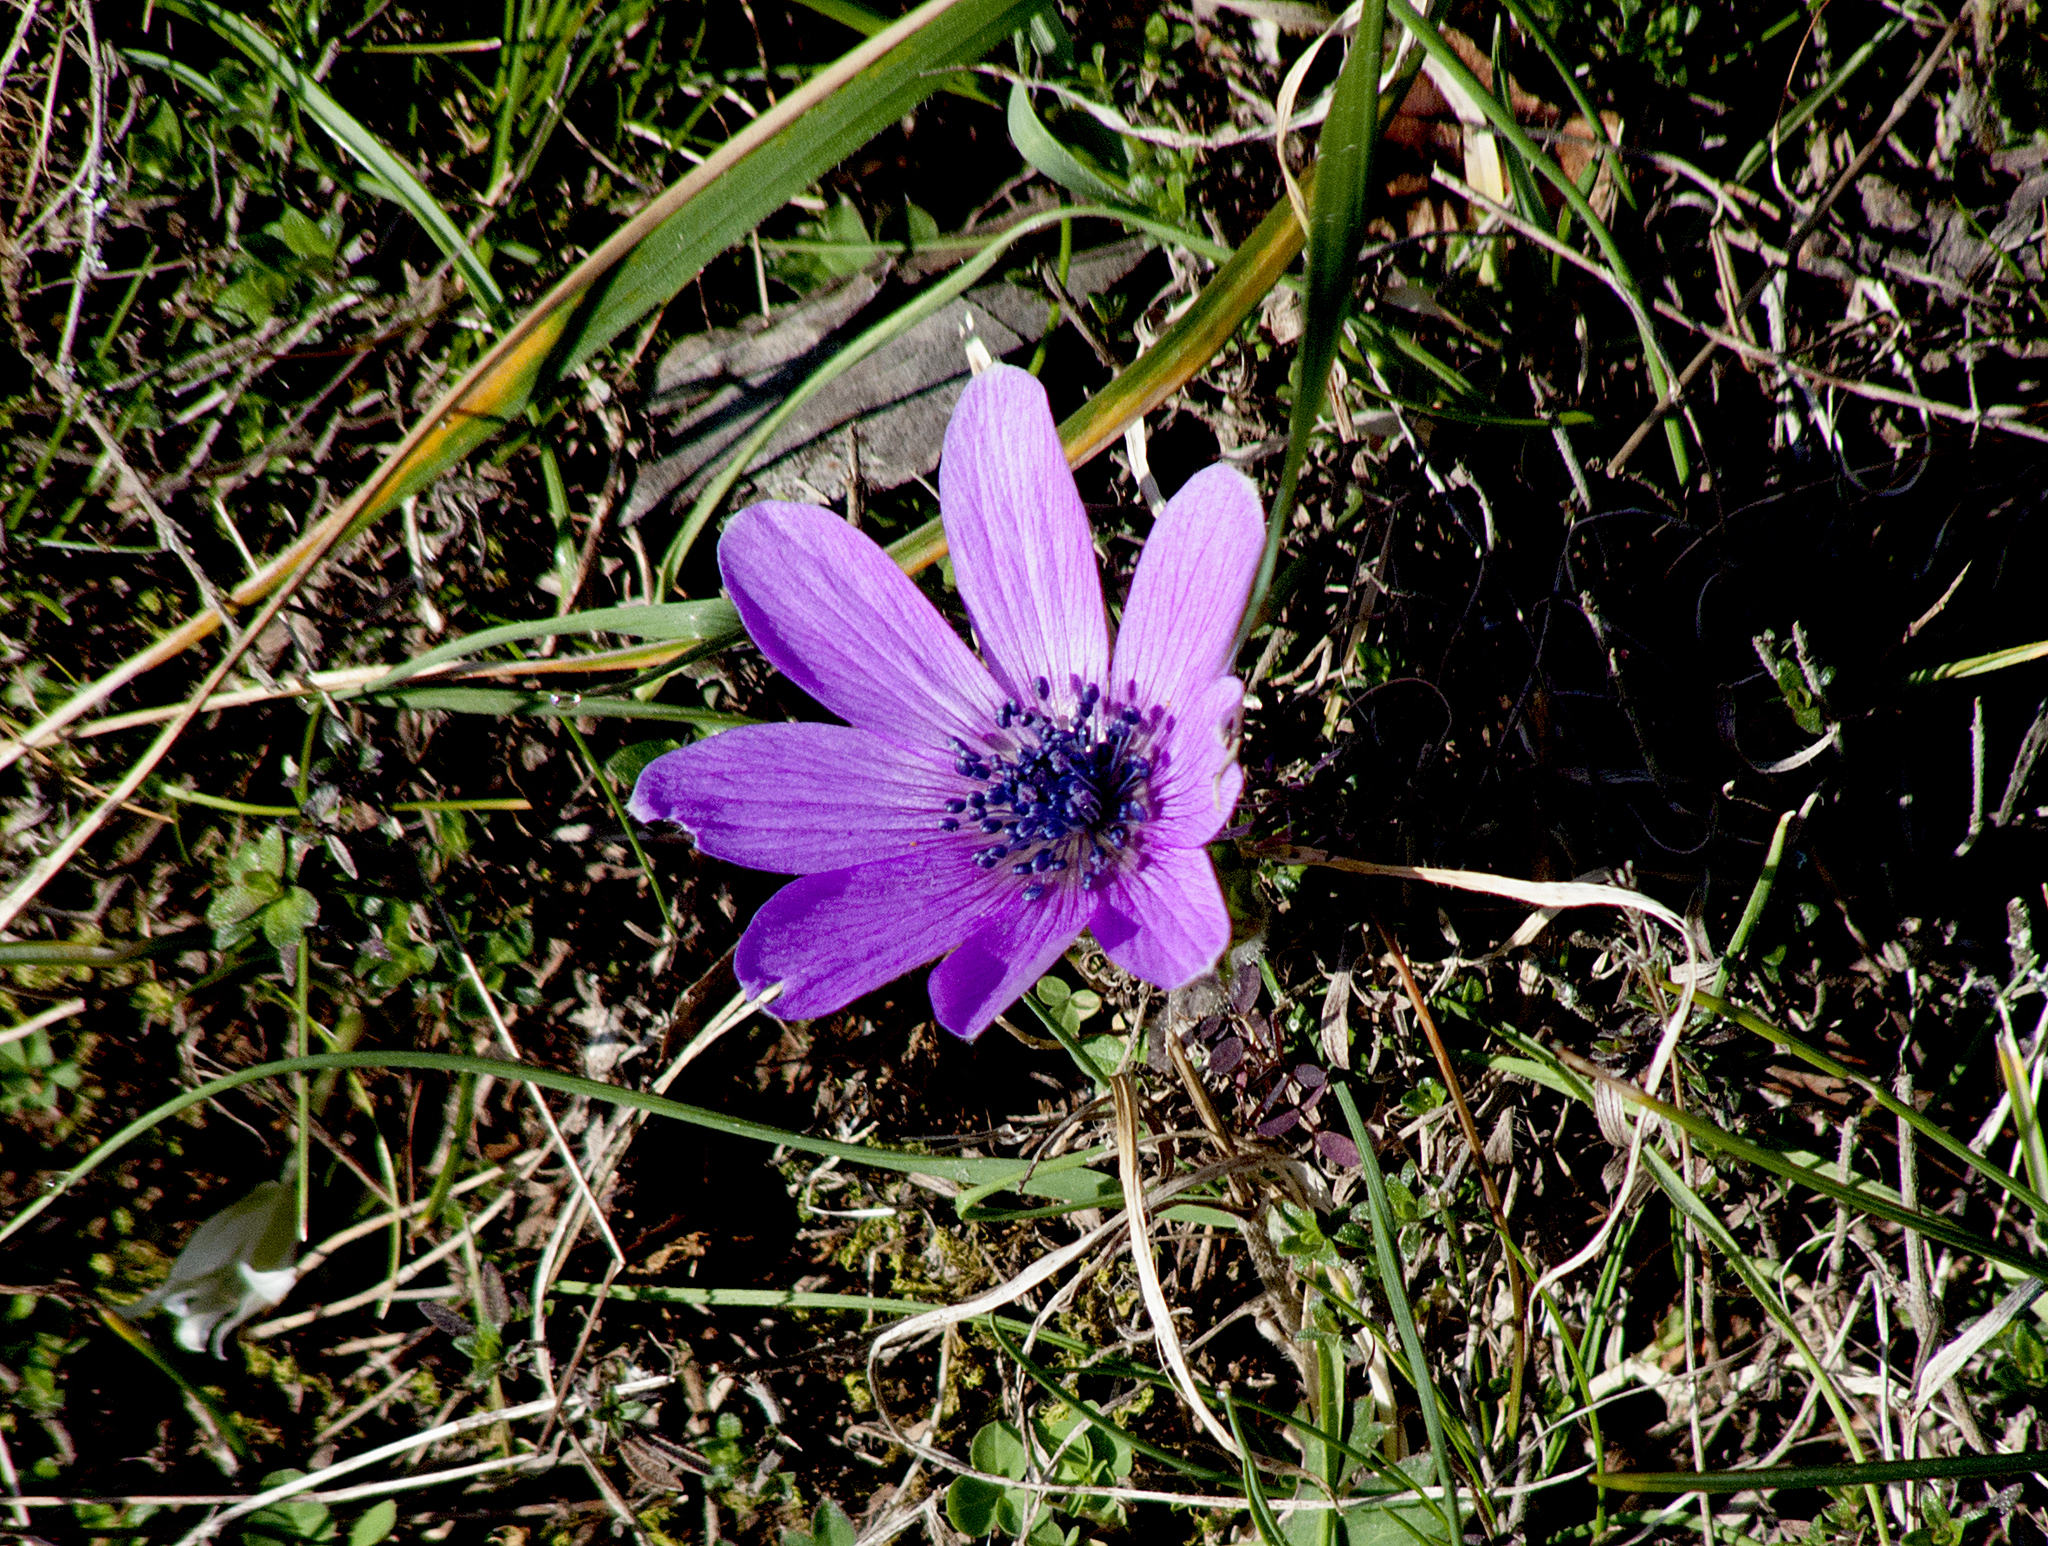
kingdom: Plantae
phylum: Tracheophyta
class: Magnoliopsida
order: Ranunculales
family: Ranunculaceae
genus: Anemone
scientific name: Anemone pavonina
